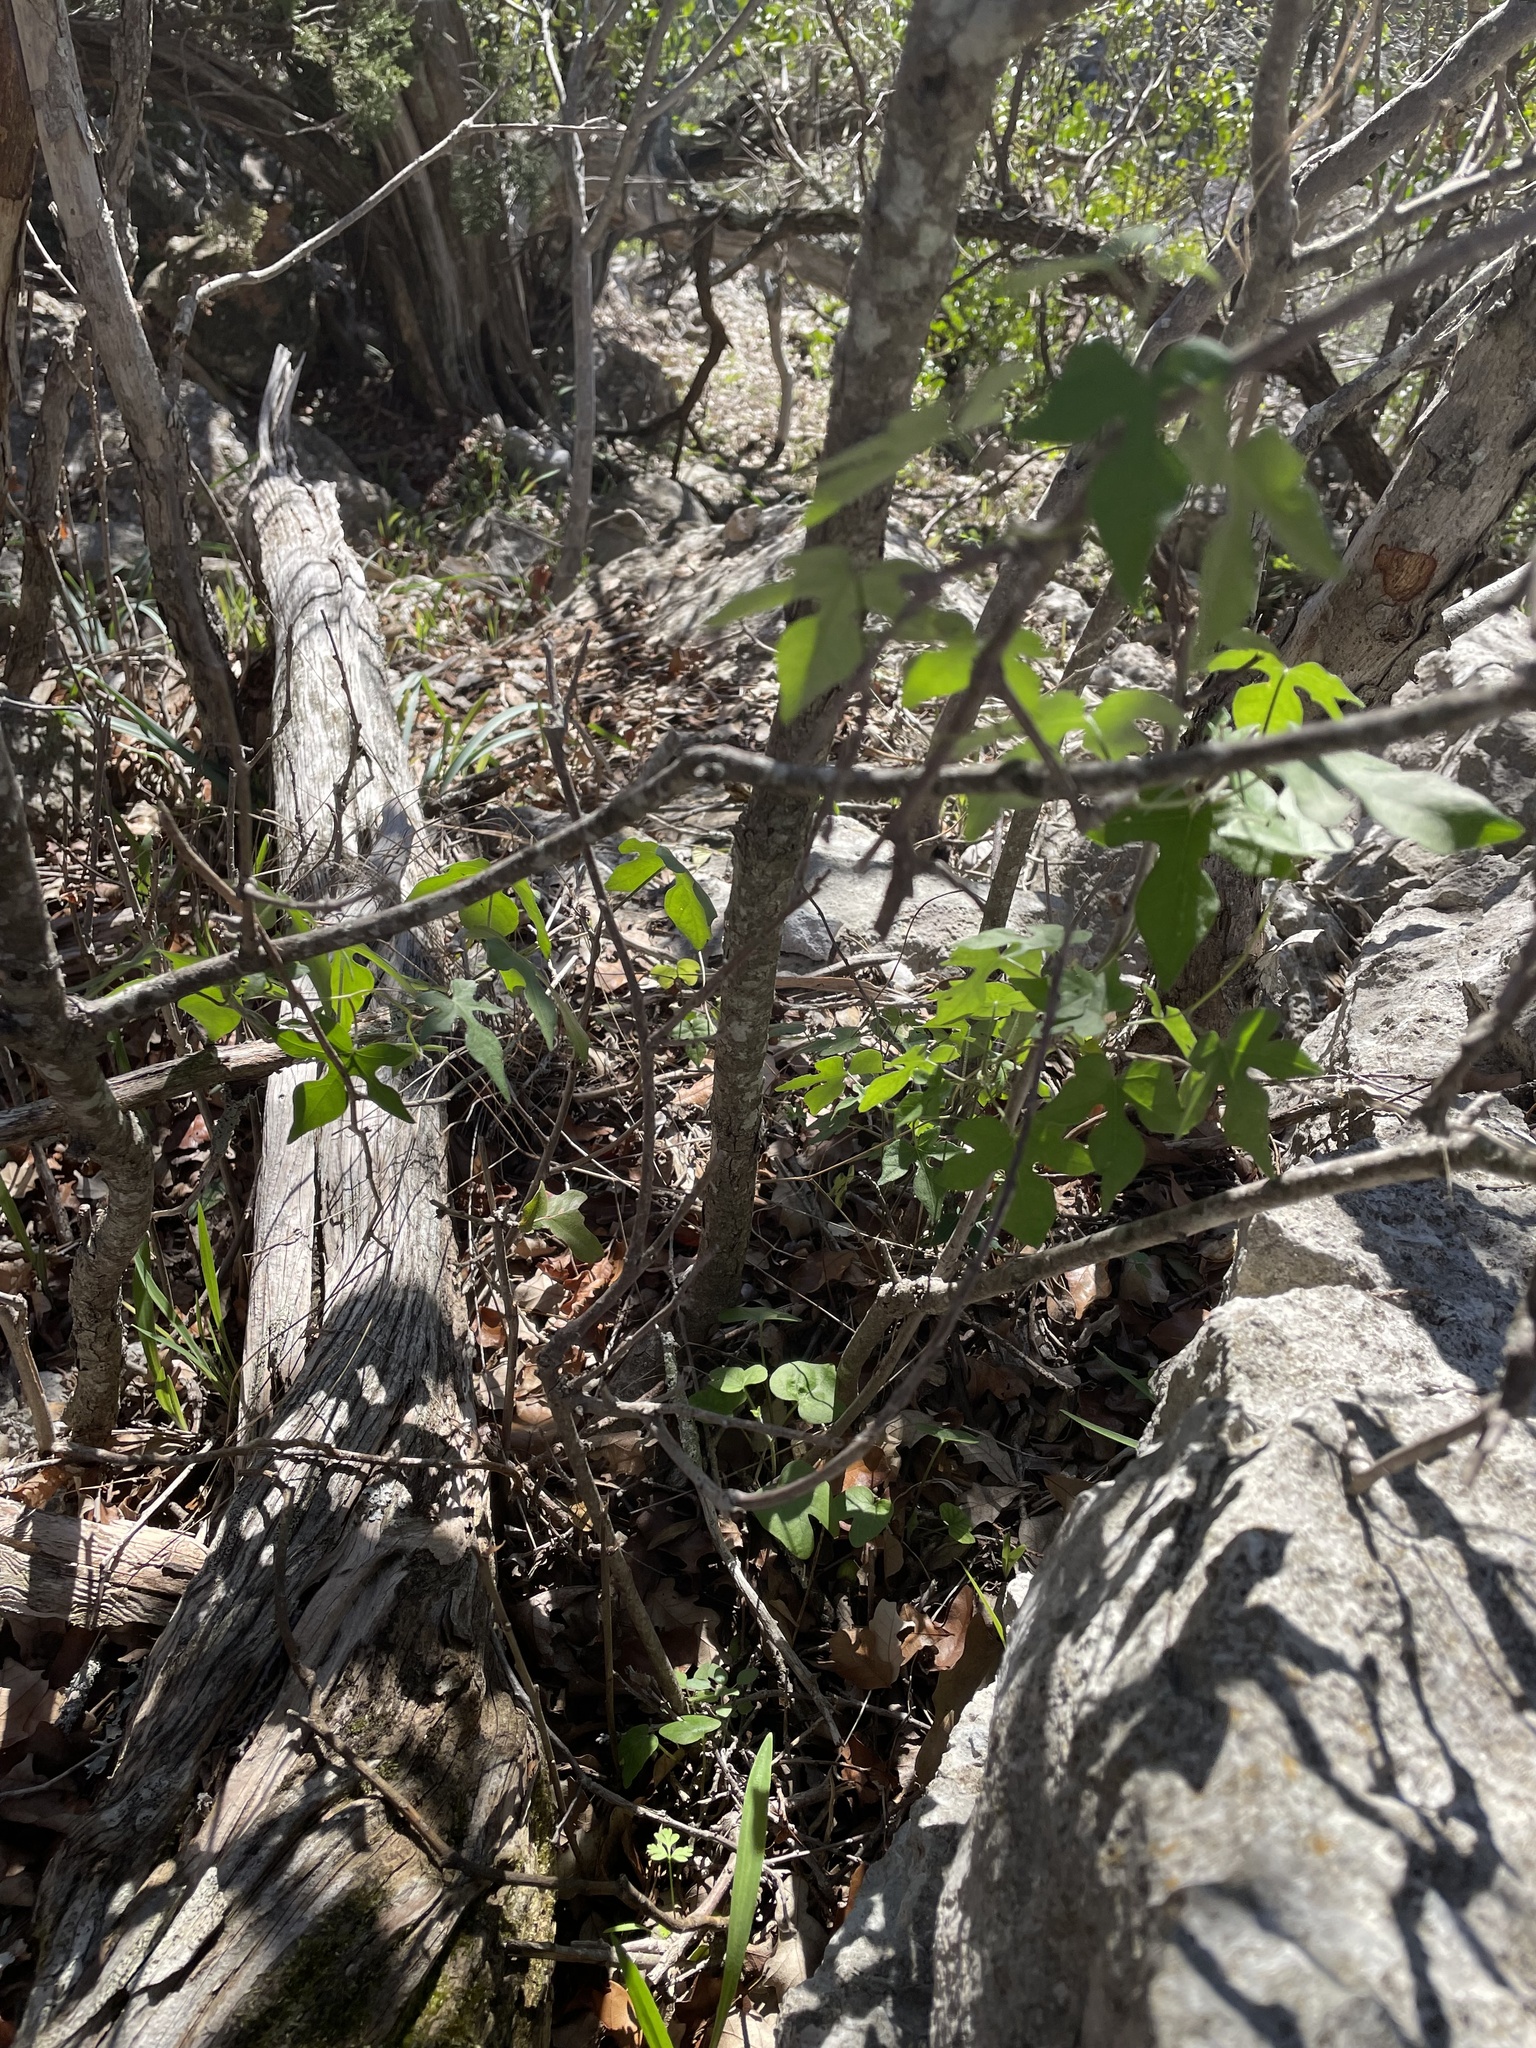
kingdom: Plantae
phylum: Tracheophyta
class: Magnoliopsida
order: Solanales
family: Convolvulaceae
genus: Ipomoea
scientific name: Ipomoea lindheimeri
